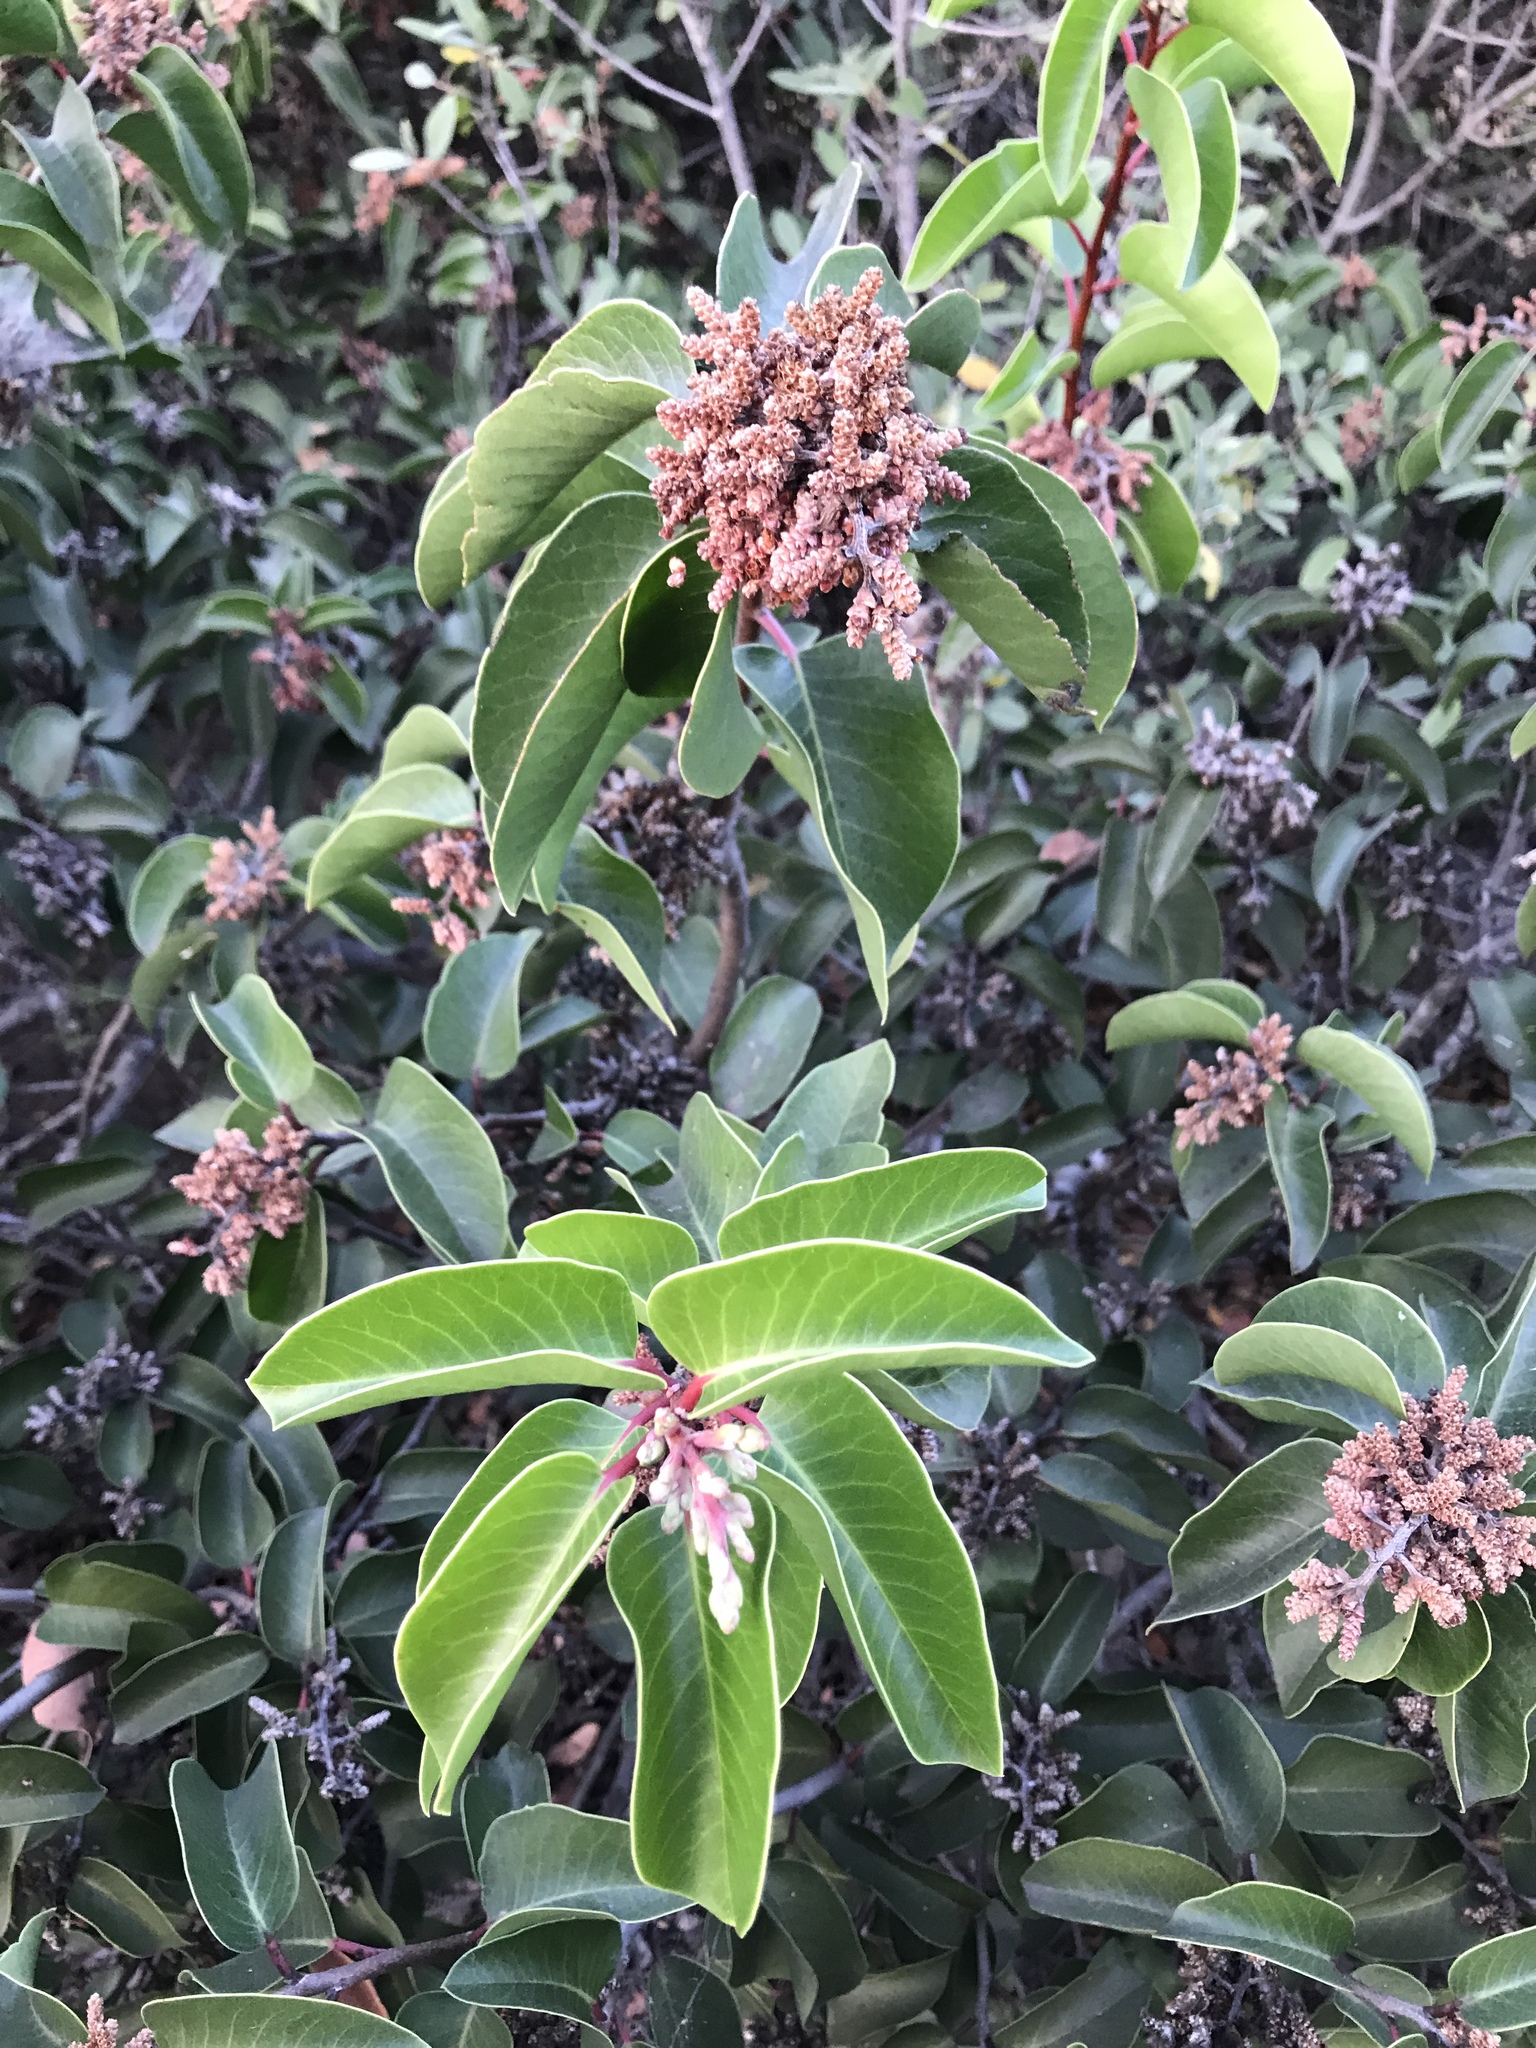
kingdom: Plantae
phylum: Tracheophyta
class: Magnoliopsida
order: Sapindales
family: Anacardiaceae
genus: Rhus
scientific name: Rhus ovata
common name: Sugar sumac
